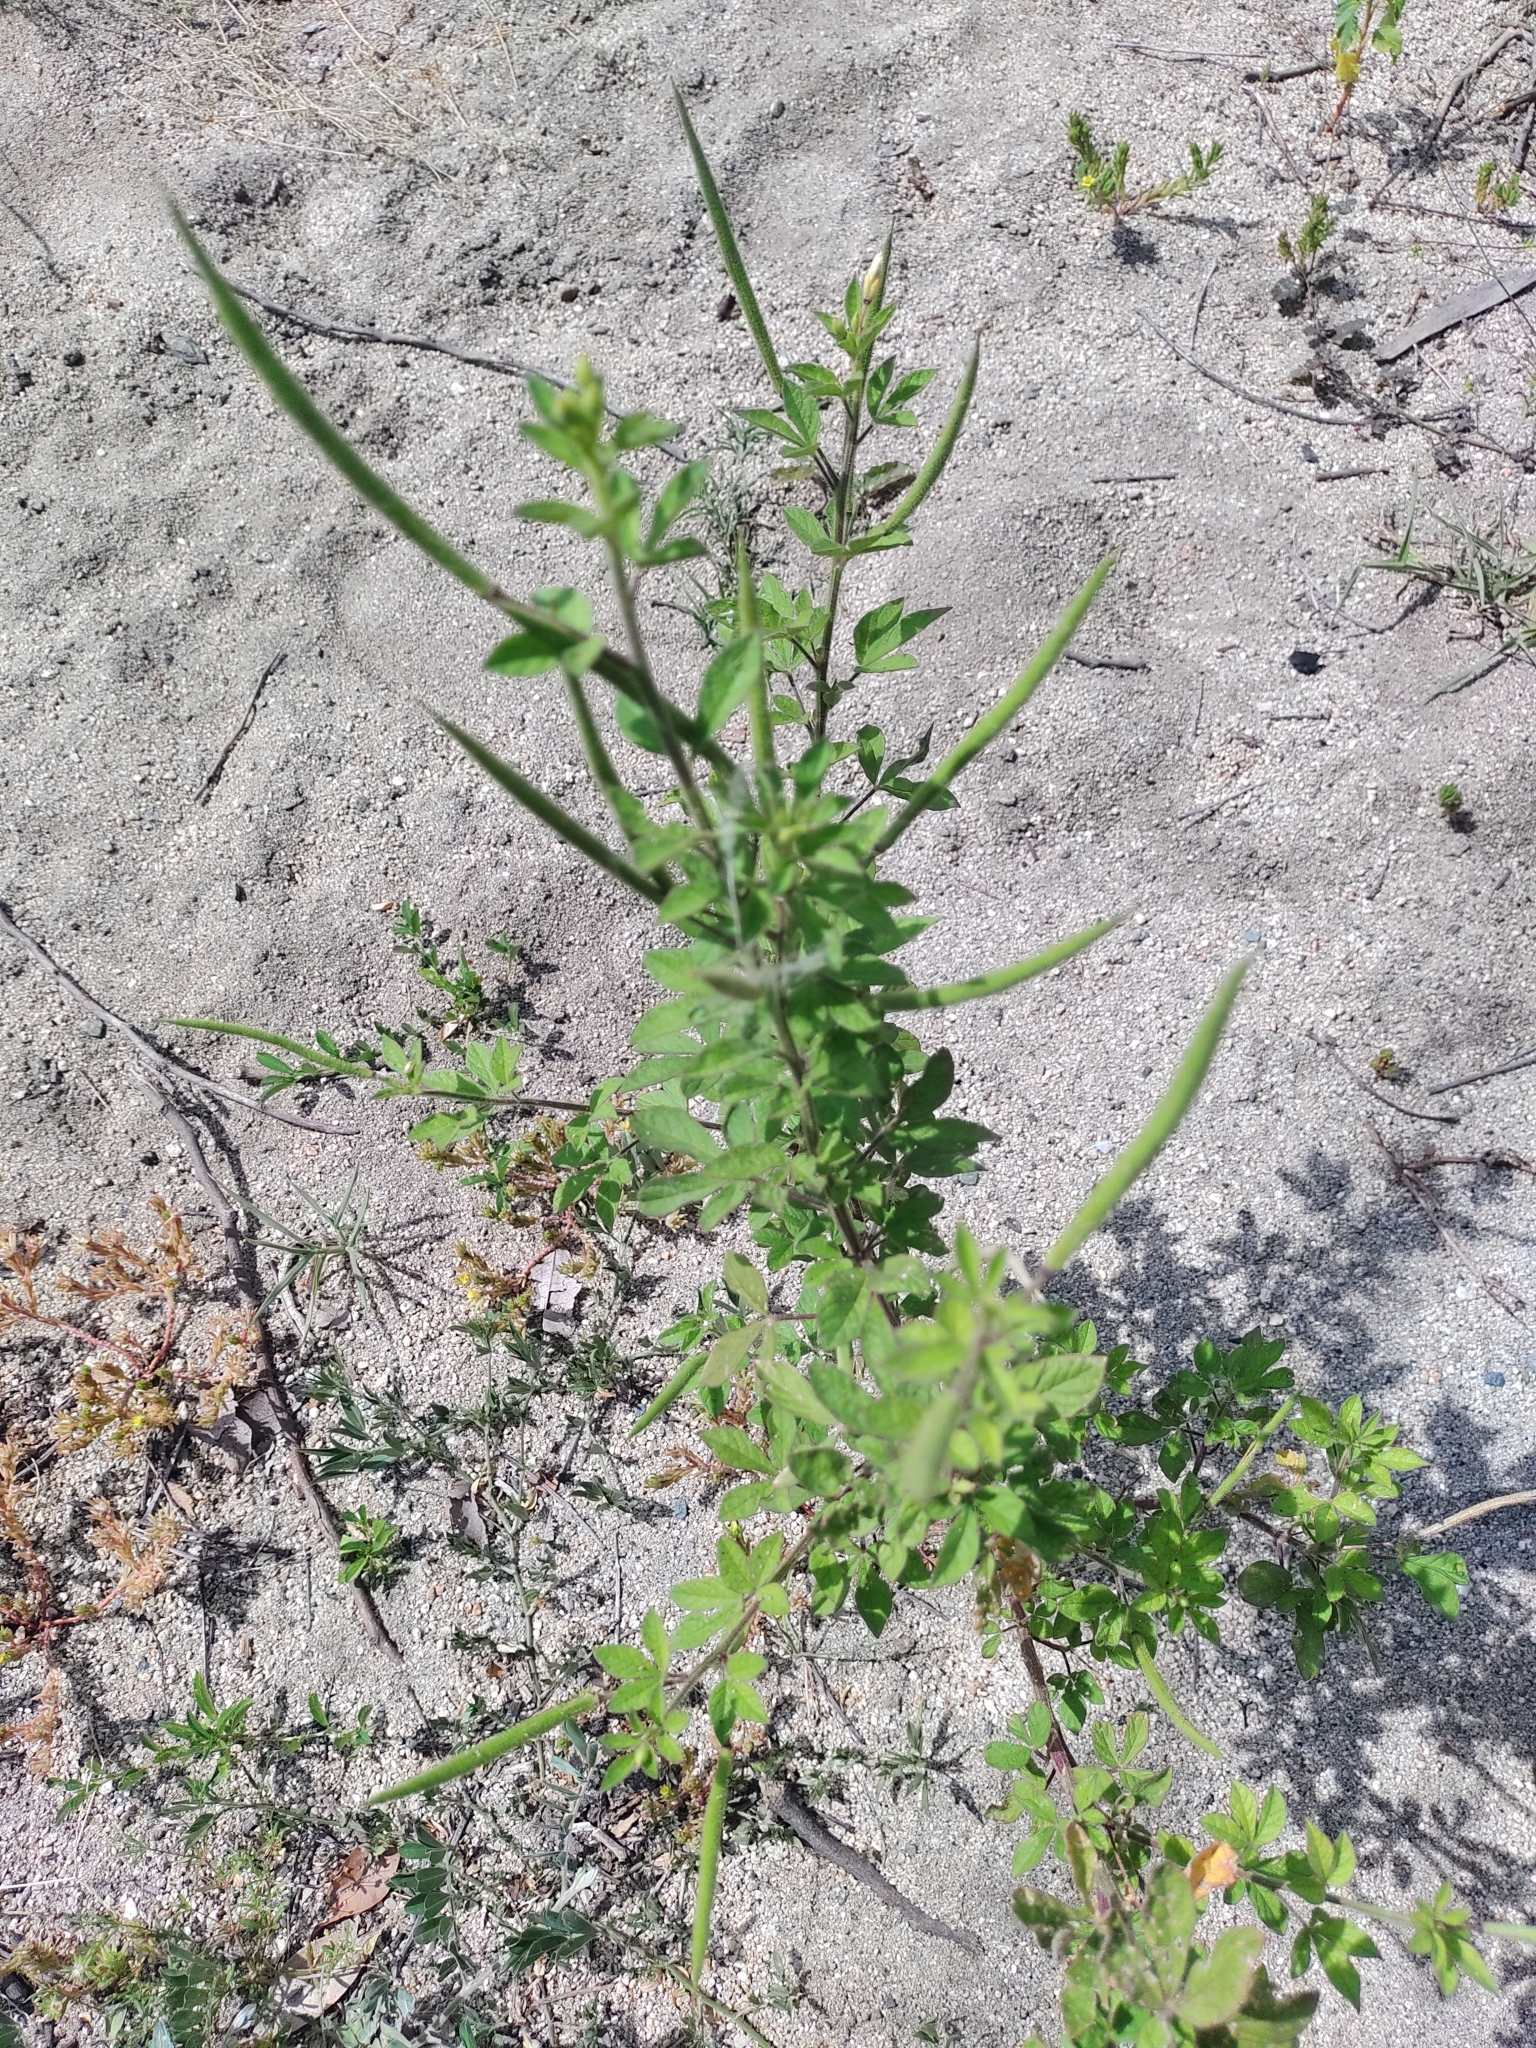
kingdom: Plantae
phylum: Tracheophyta
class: Magnoliopsida
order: Brassicales
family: Cleomaceae
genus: Arivela
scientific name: Arivela viscosa
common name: Asian spiderflower
